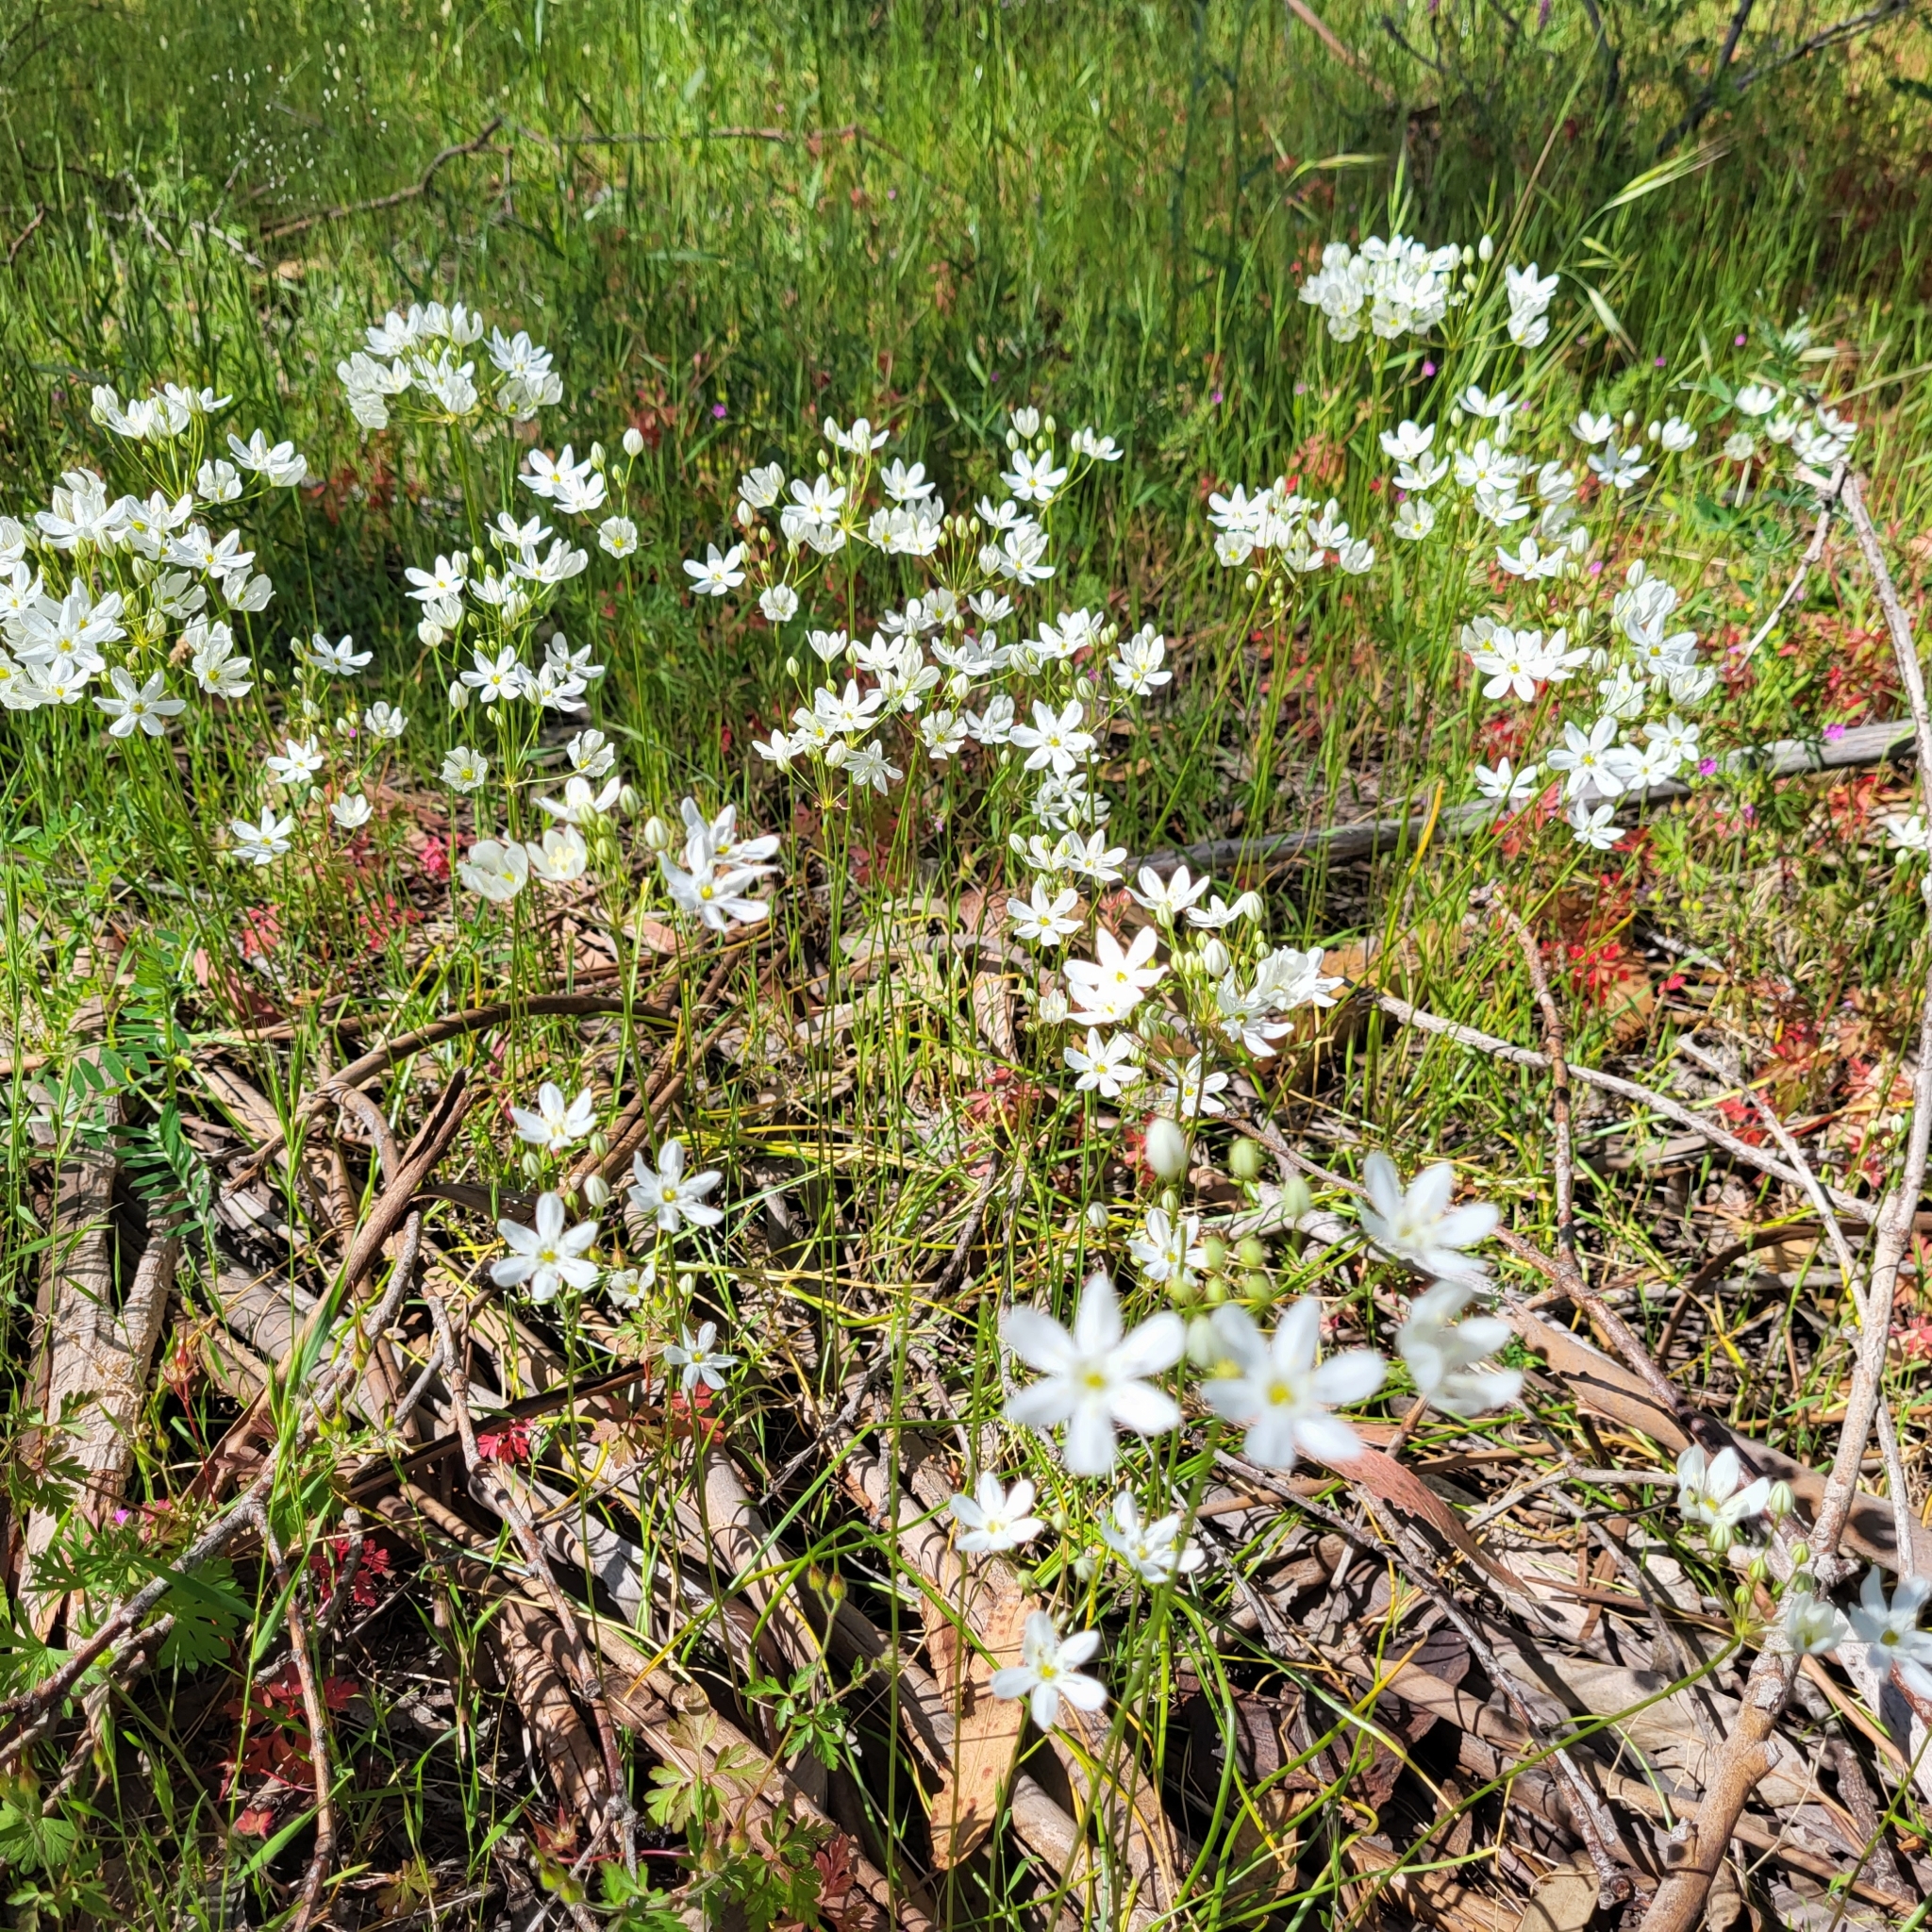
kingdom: Plantae
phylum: Tracheophyta
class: Liliopsida
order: Asparagales
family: Asparagaceae
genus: Triteleia
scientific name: Triteleia hyacinthina
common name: White brodiaea
